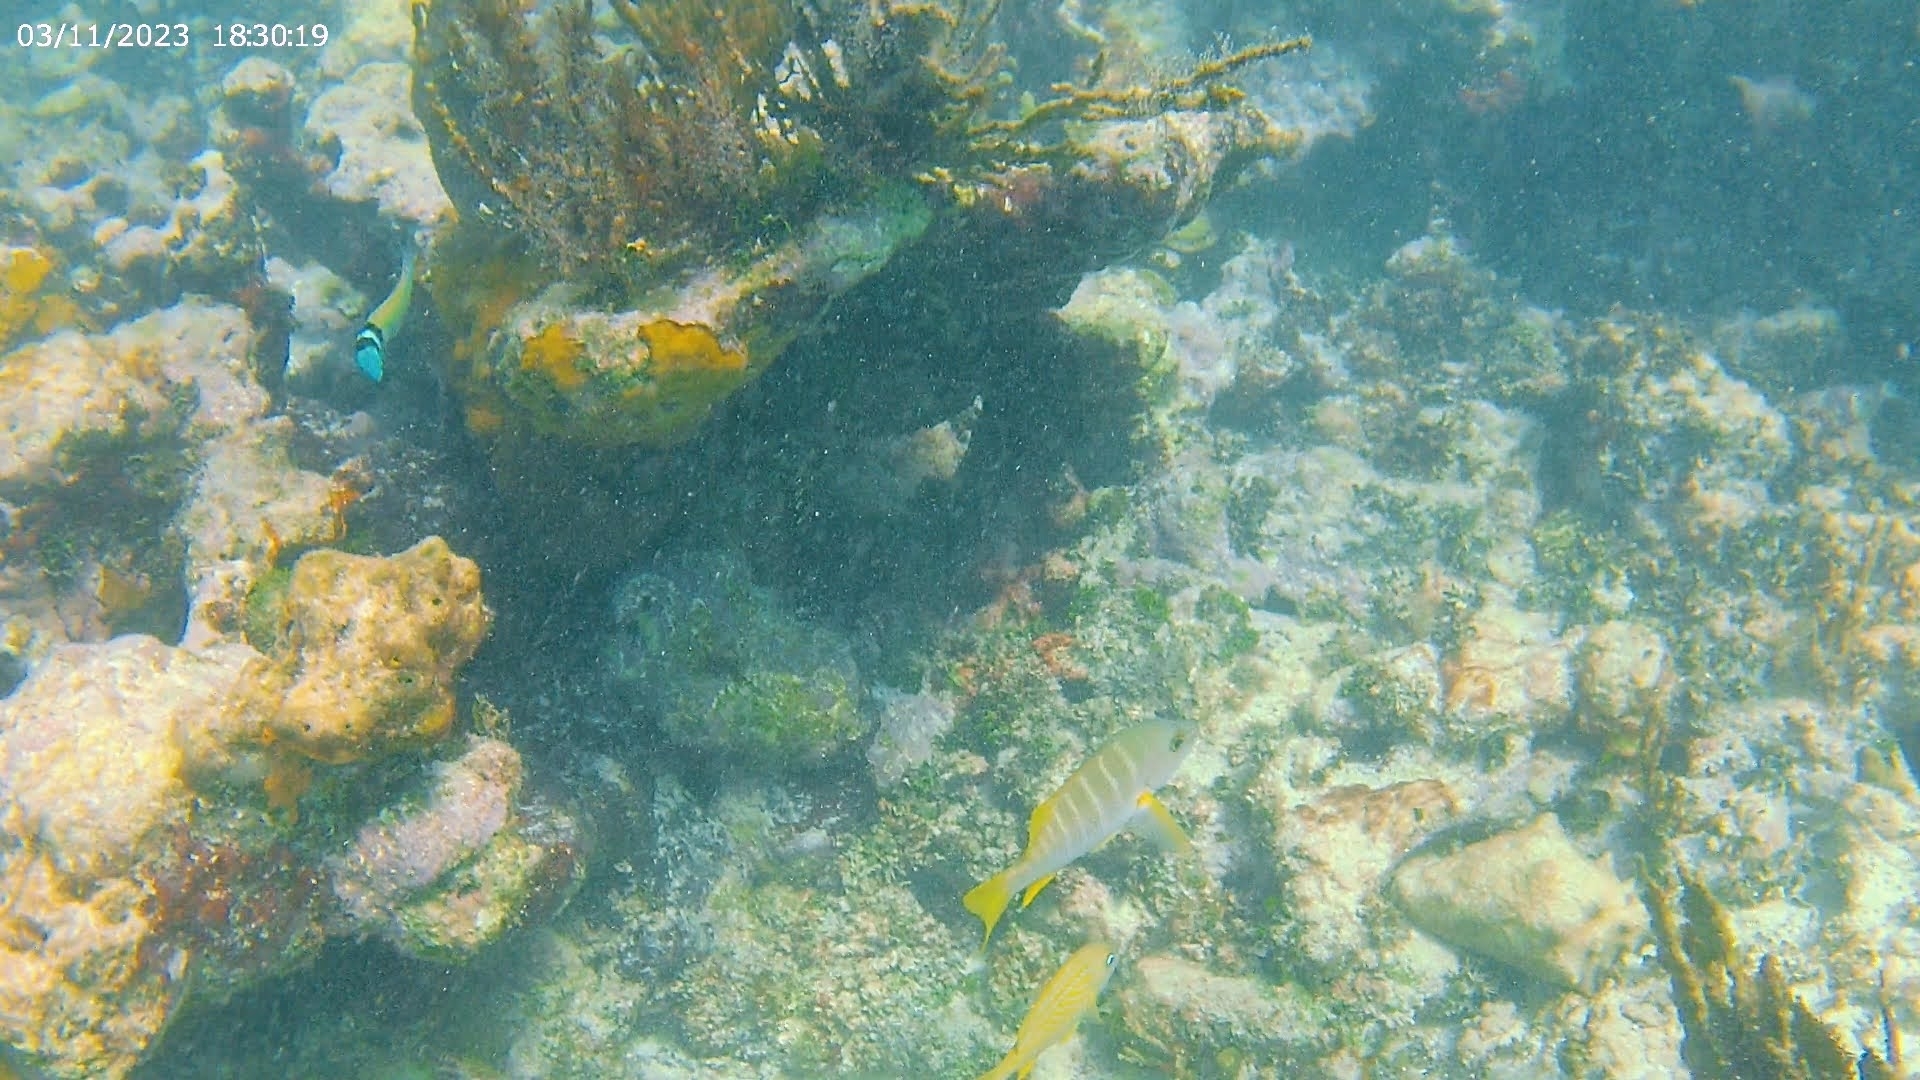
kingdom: Animalia
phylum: Chordata
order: Perciformes
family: Lutjanidae
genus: Lutjanus
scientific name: Lutjanus apodus
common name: Schoolmaster
